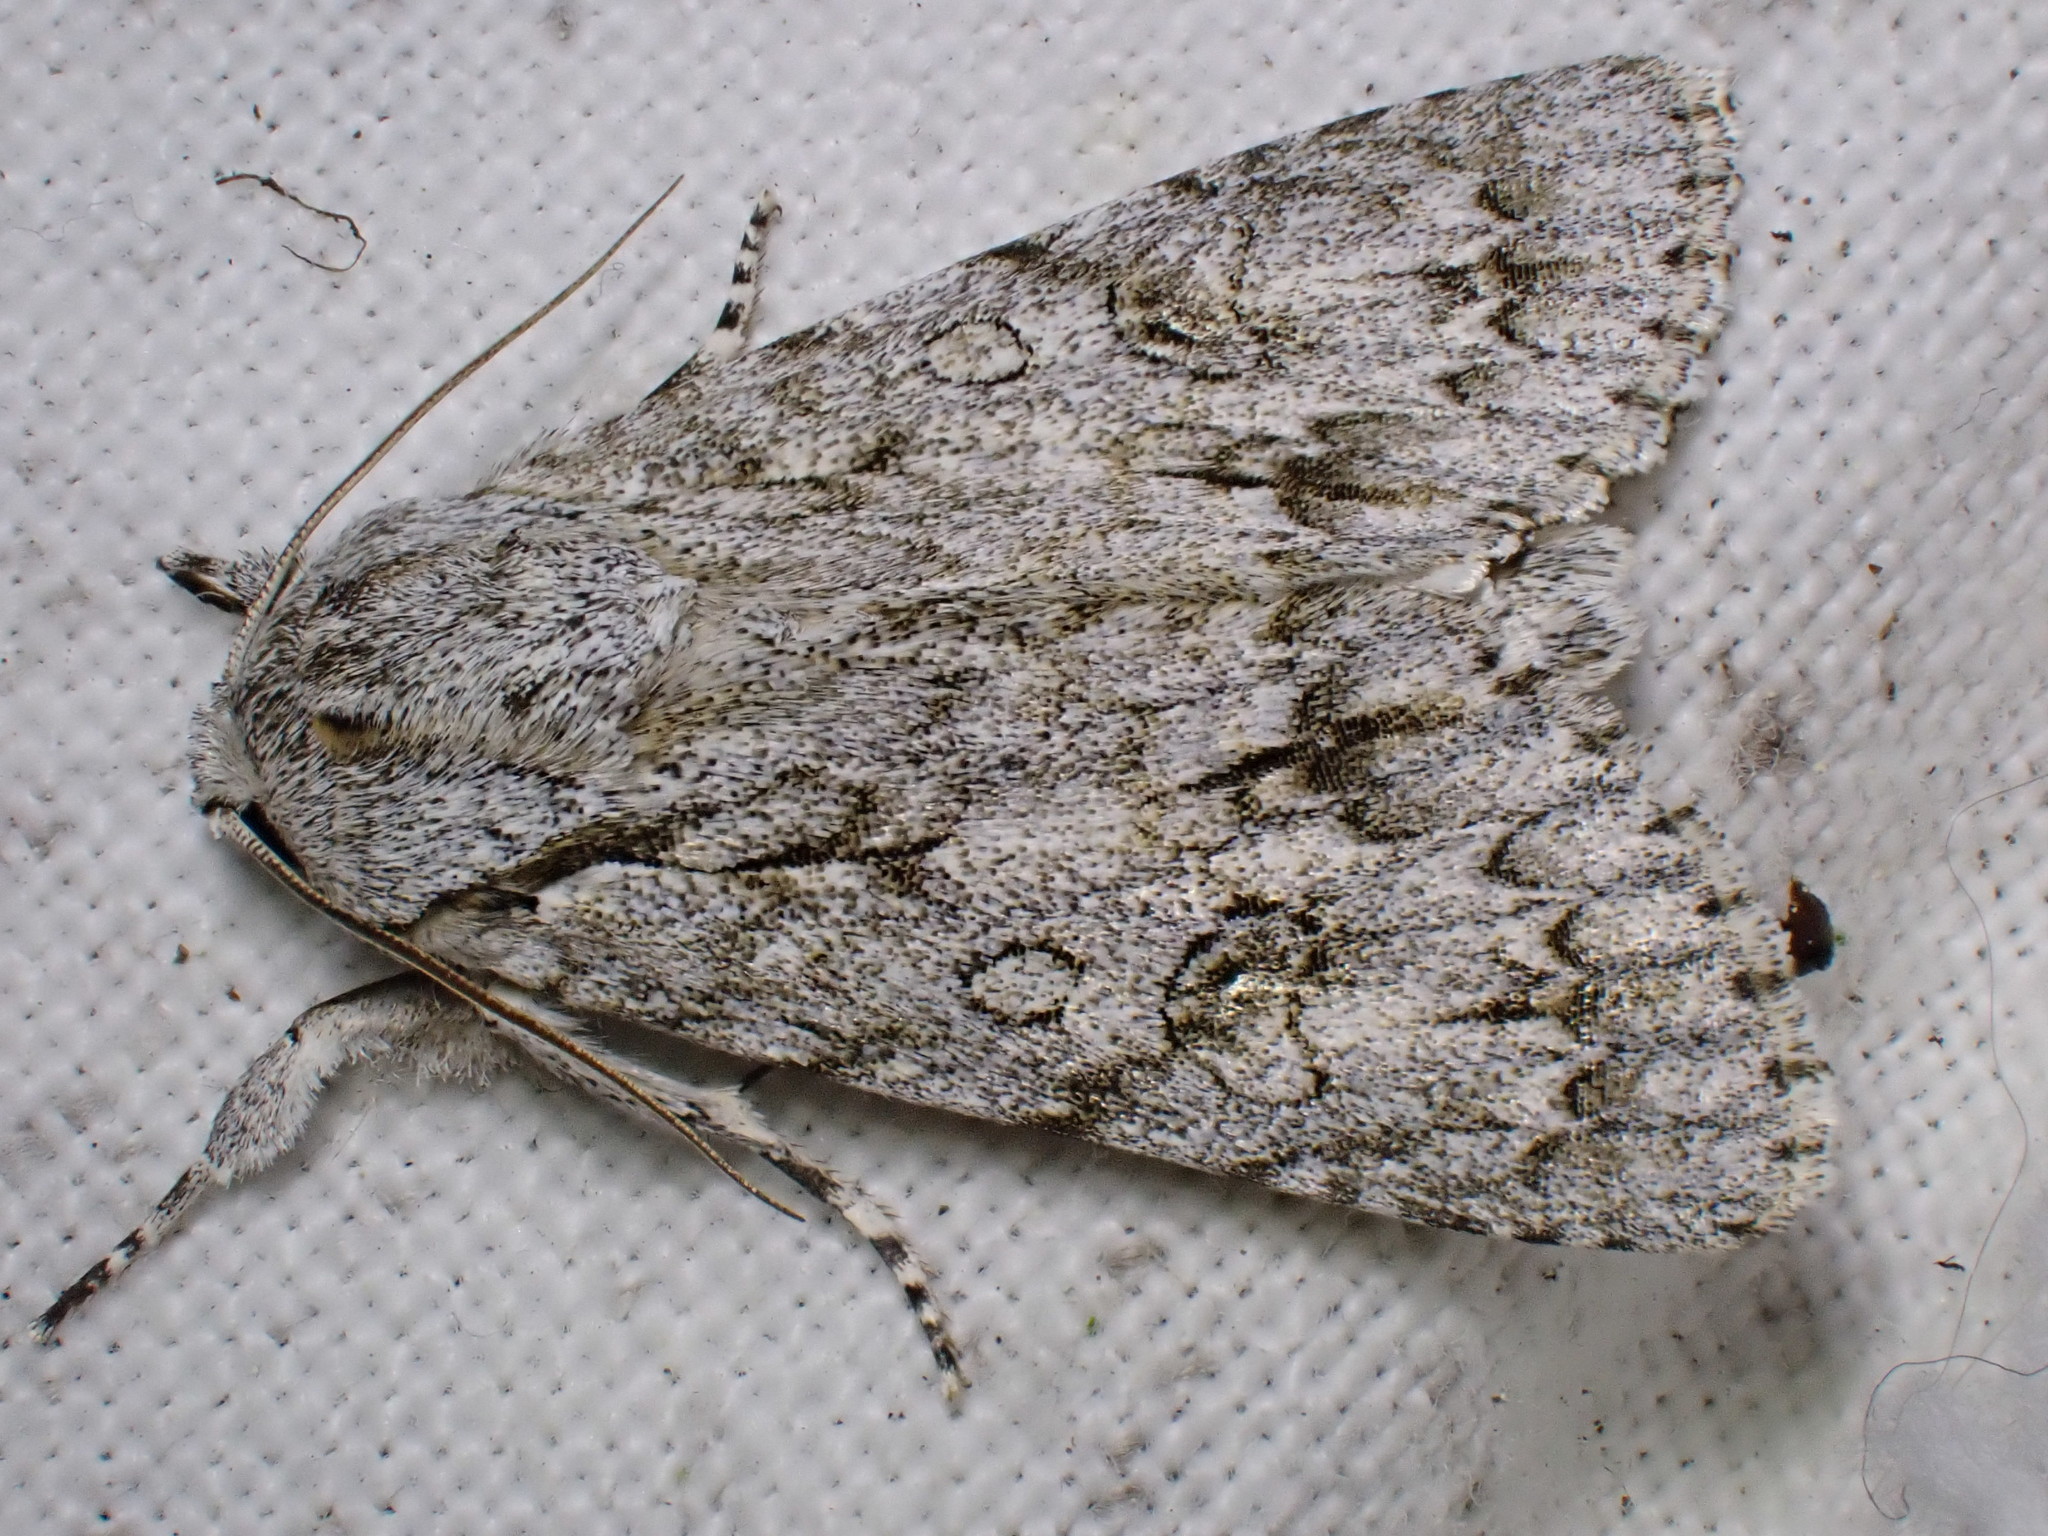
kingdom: Animalia
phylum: Arthropoda
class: Insecta
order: Lepidoptera
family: Noctuidae
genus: Acronicta
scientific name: Acronicta aceris
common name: Sycamore
